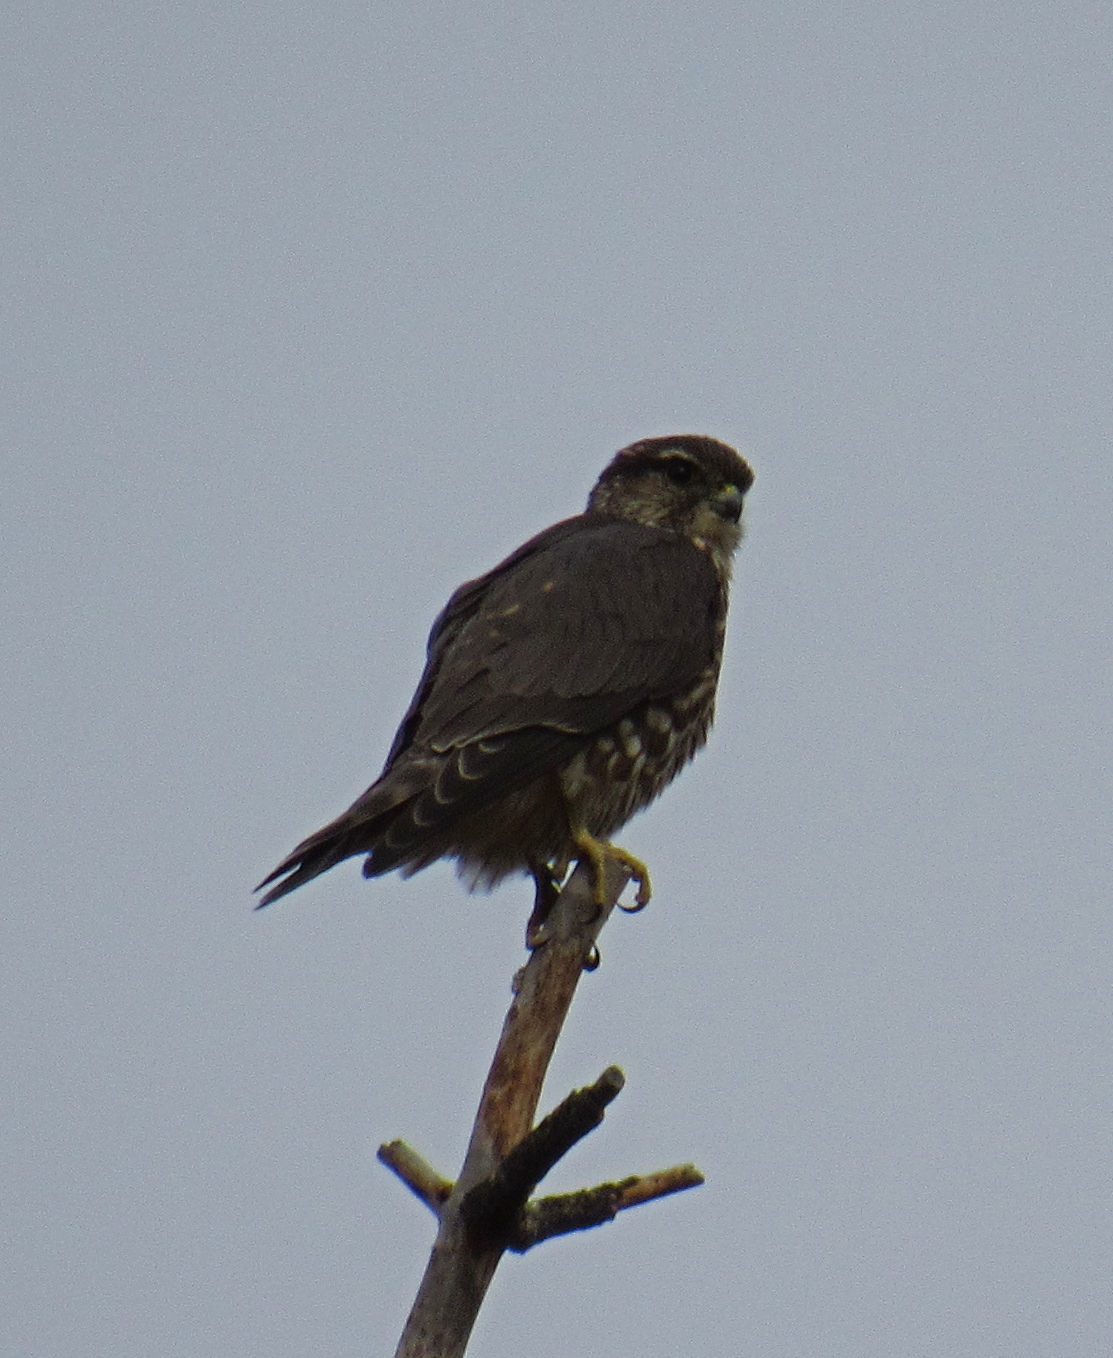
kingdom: Animalia
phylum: Chordata
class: Aves
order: Falconiformes
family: Falconidae
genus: Falco
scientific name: Falco columbarius
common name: Merlin
